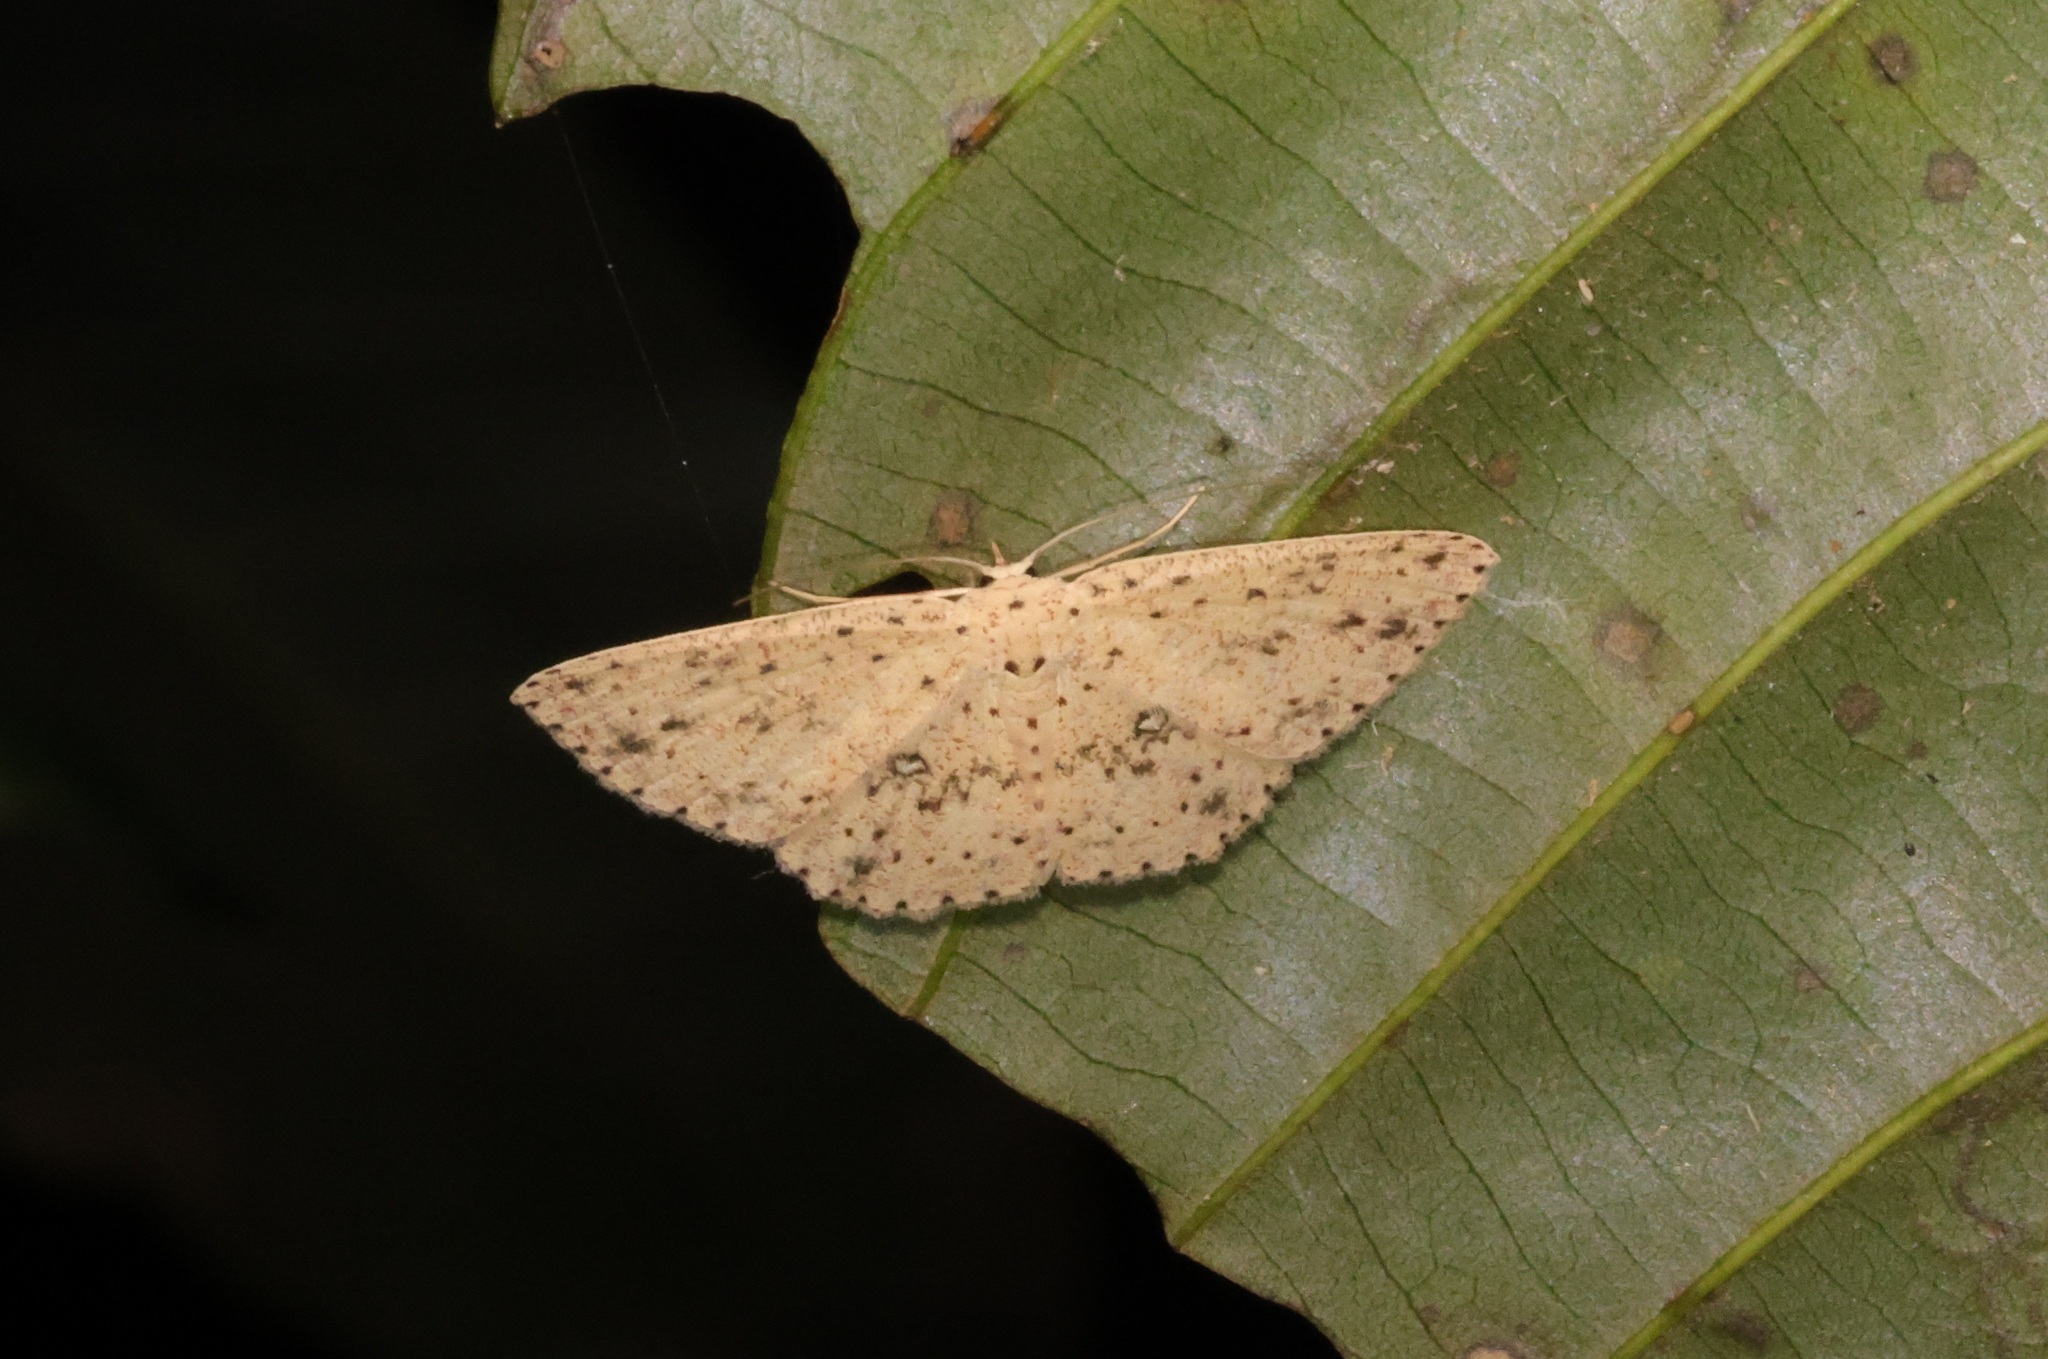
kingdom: Animalia
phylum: Arthropoda
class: Insecta
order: Lepidoptera
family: Geometridae
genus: Perixera
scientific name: Perixera decretarioides
